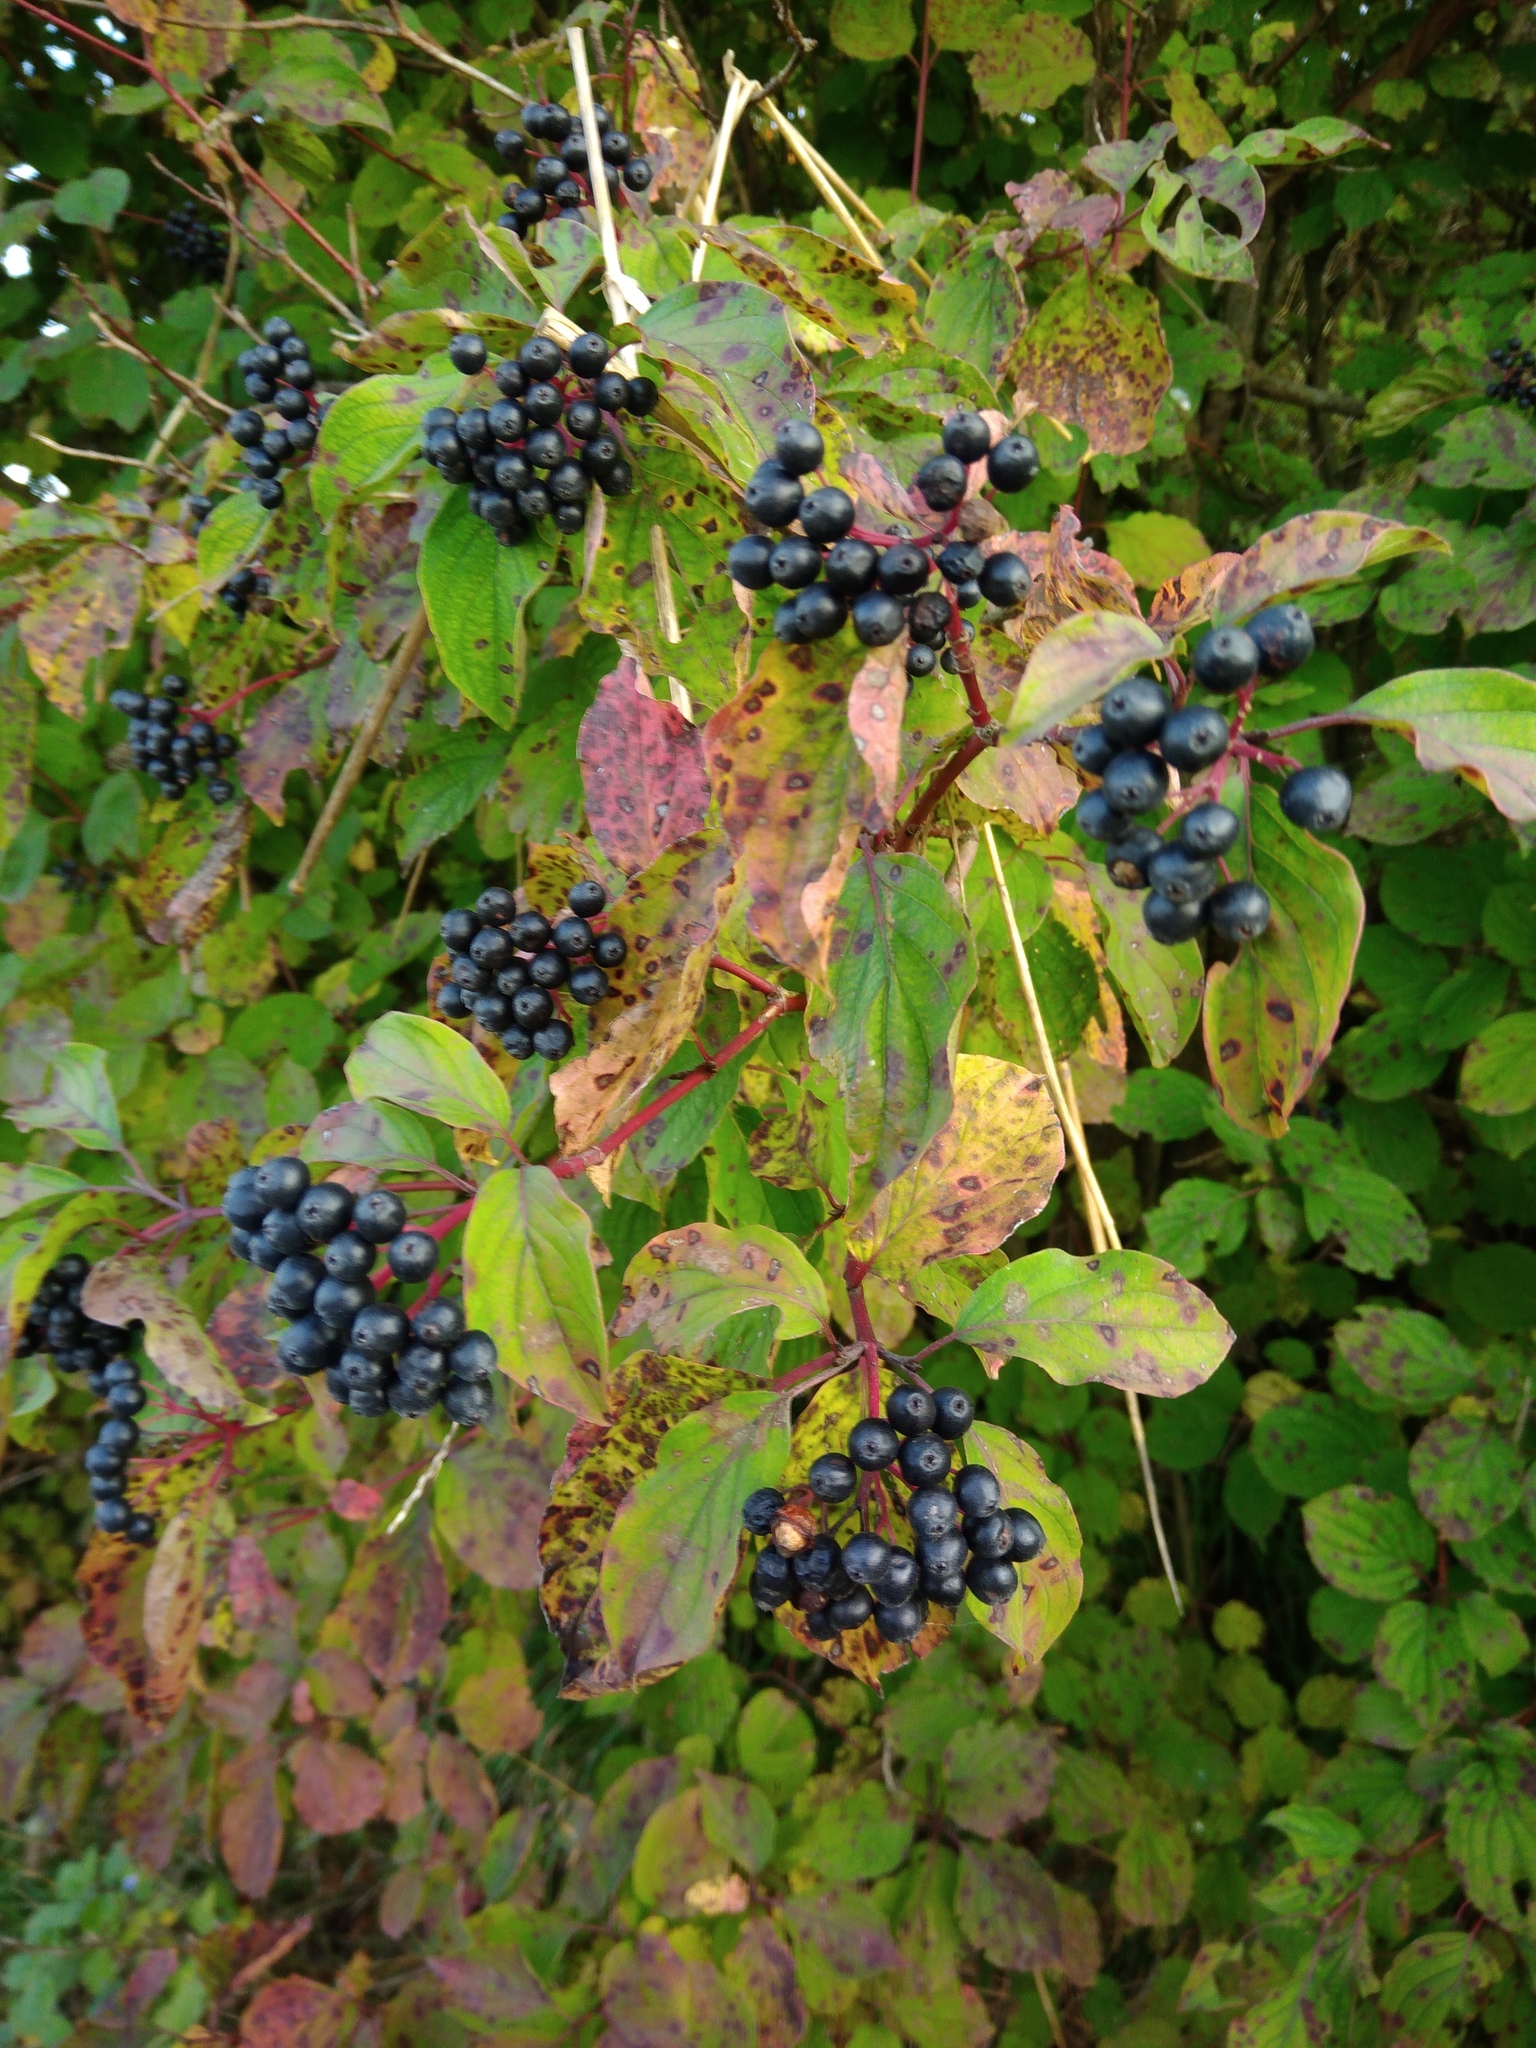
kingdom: Plantae
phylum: Tracheophyta
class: Magnoliopsida
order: Cornales
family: Cornaceae
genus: Cornus
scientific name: Cornus sanguinea
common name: Dogwood
